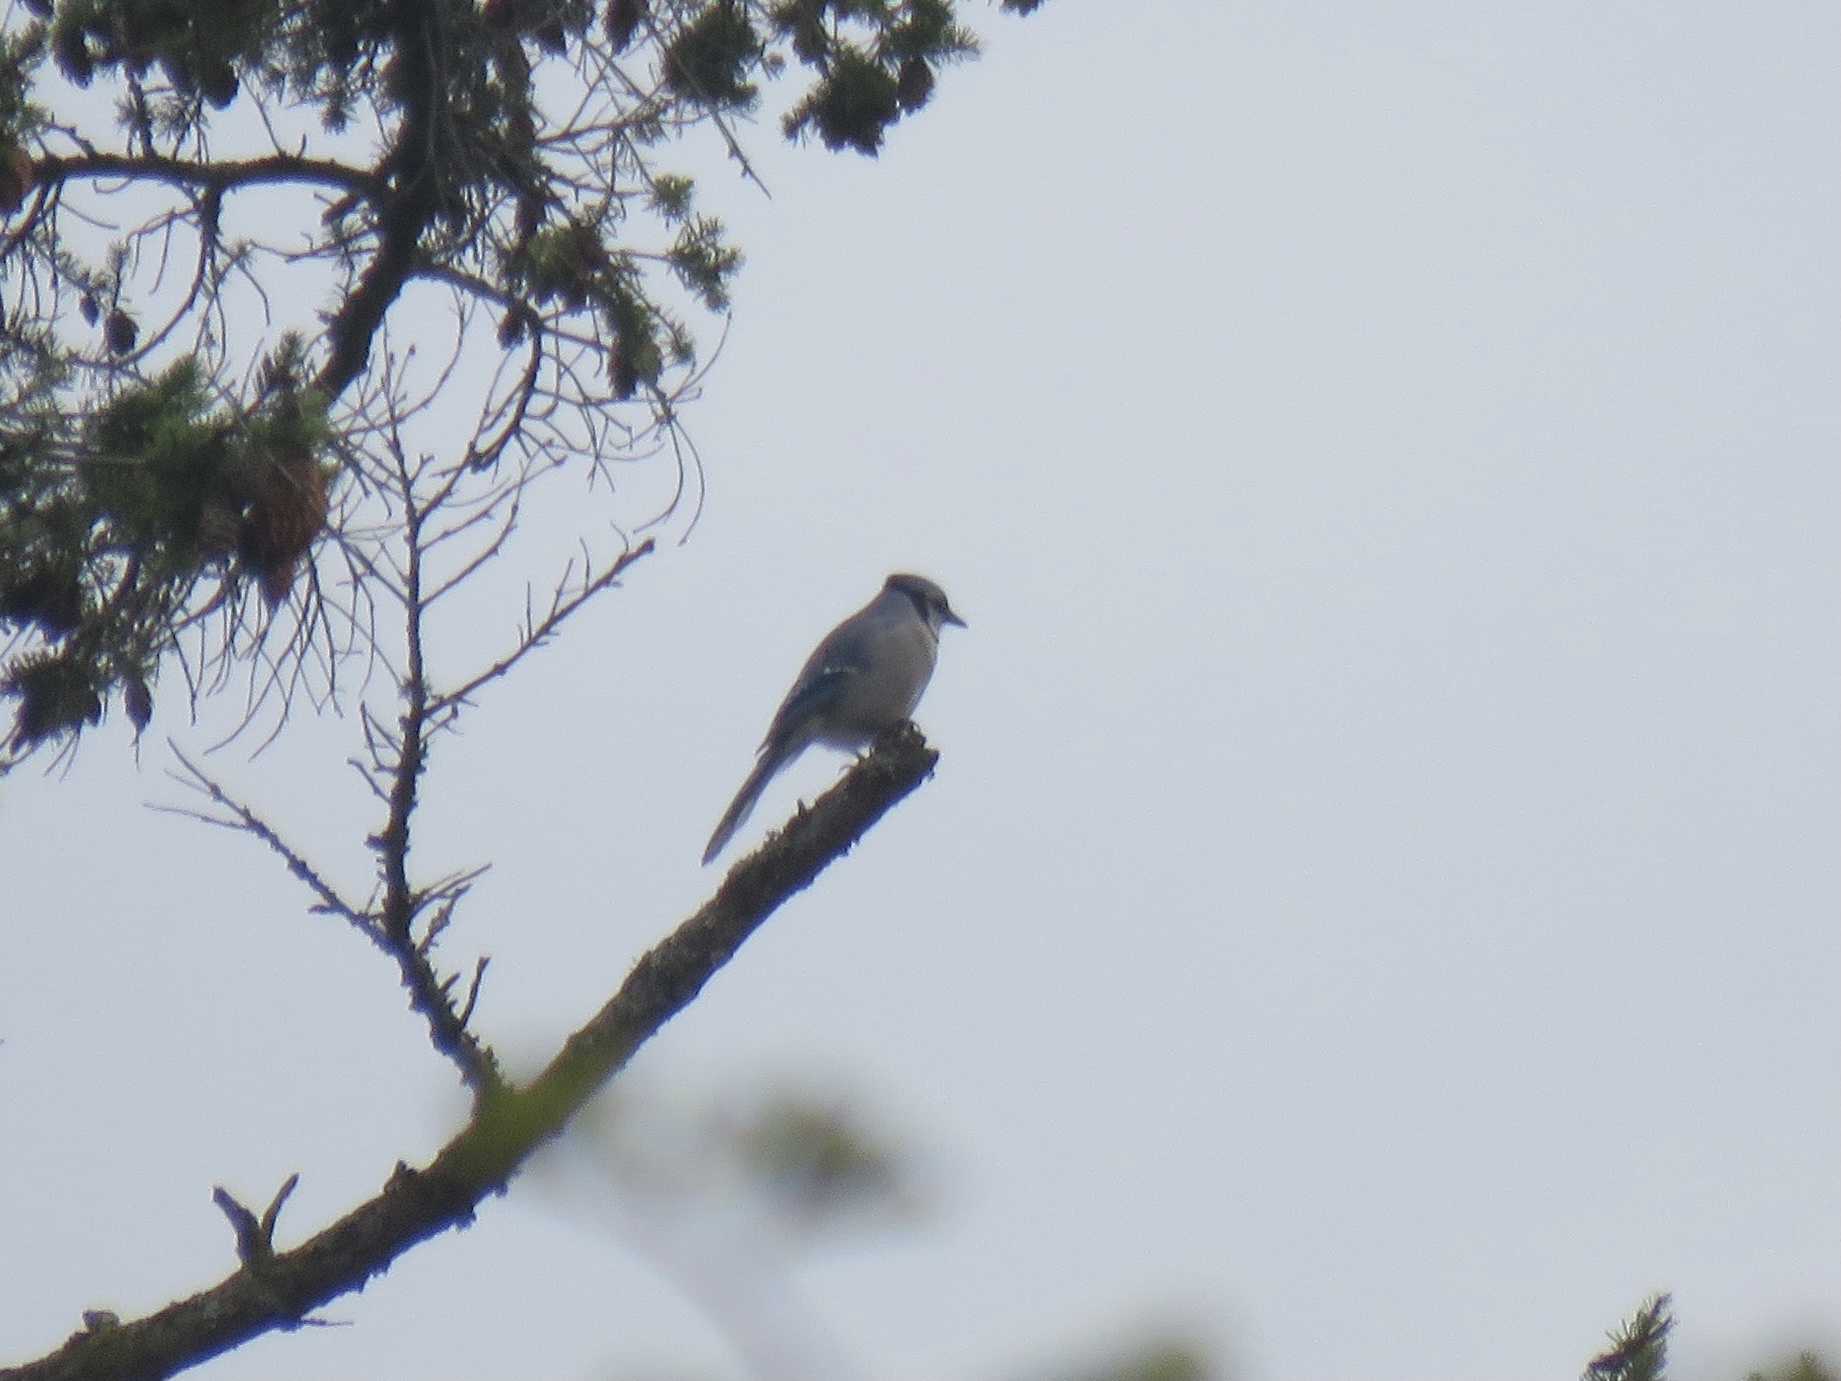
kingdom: Animalia
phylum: Chordata
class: Aves
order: Passeriformes
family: Corvidae
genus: Cyanocitta
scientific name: Cyanocitta cristata
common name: Blue jay
